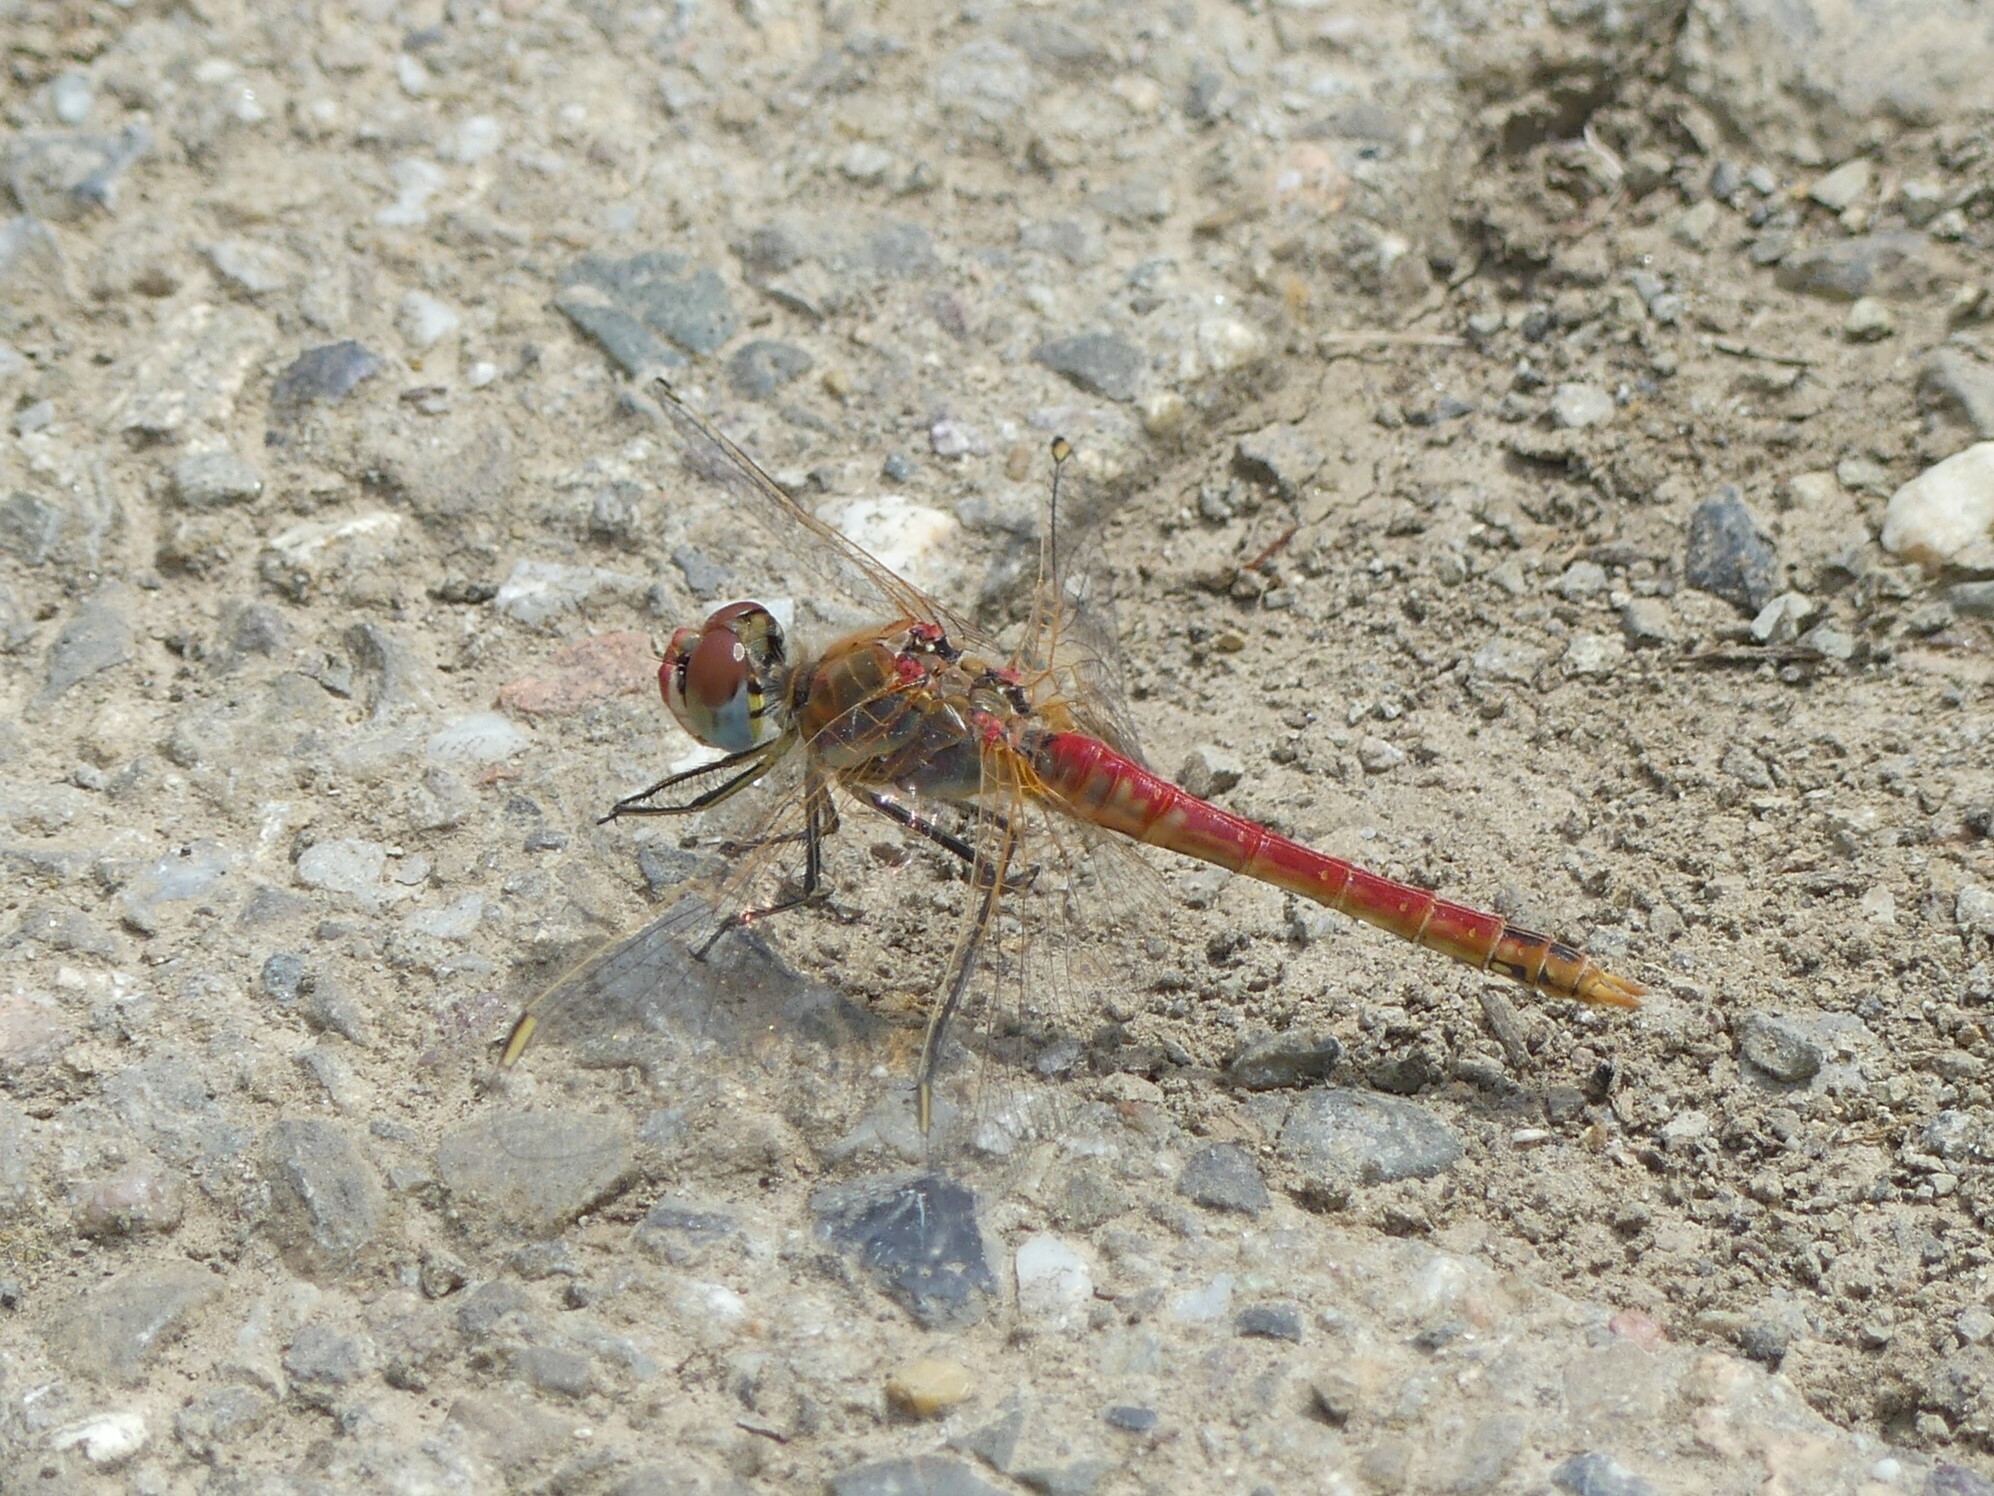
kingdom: Animalia
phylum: Arthropoda
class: Insecta
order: Odonata
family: Libellulidae
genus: Sympetrum
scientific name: Sympetrum fonscolombii
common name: Red-veined darter
